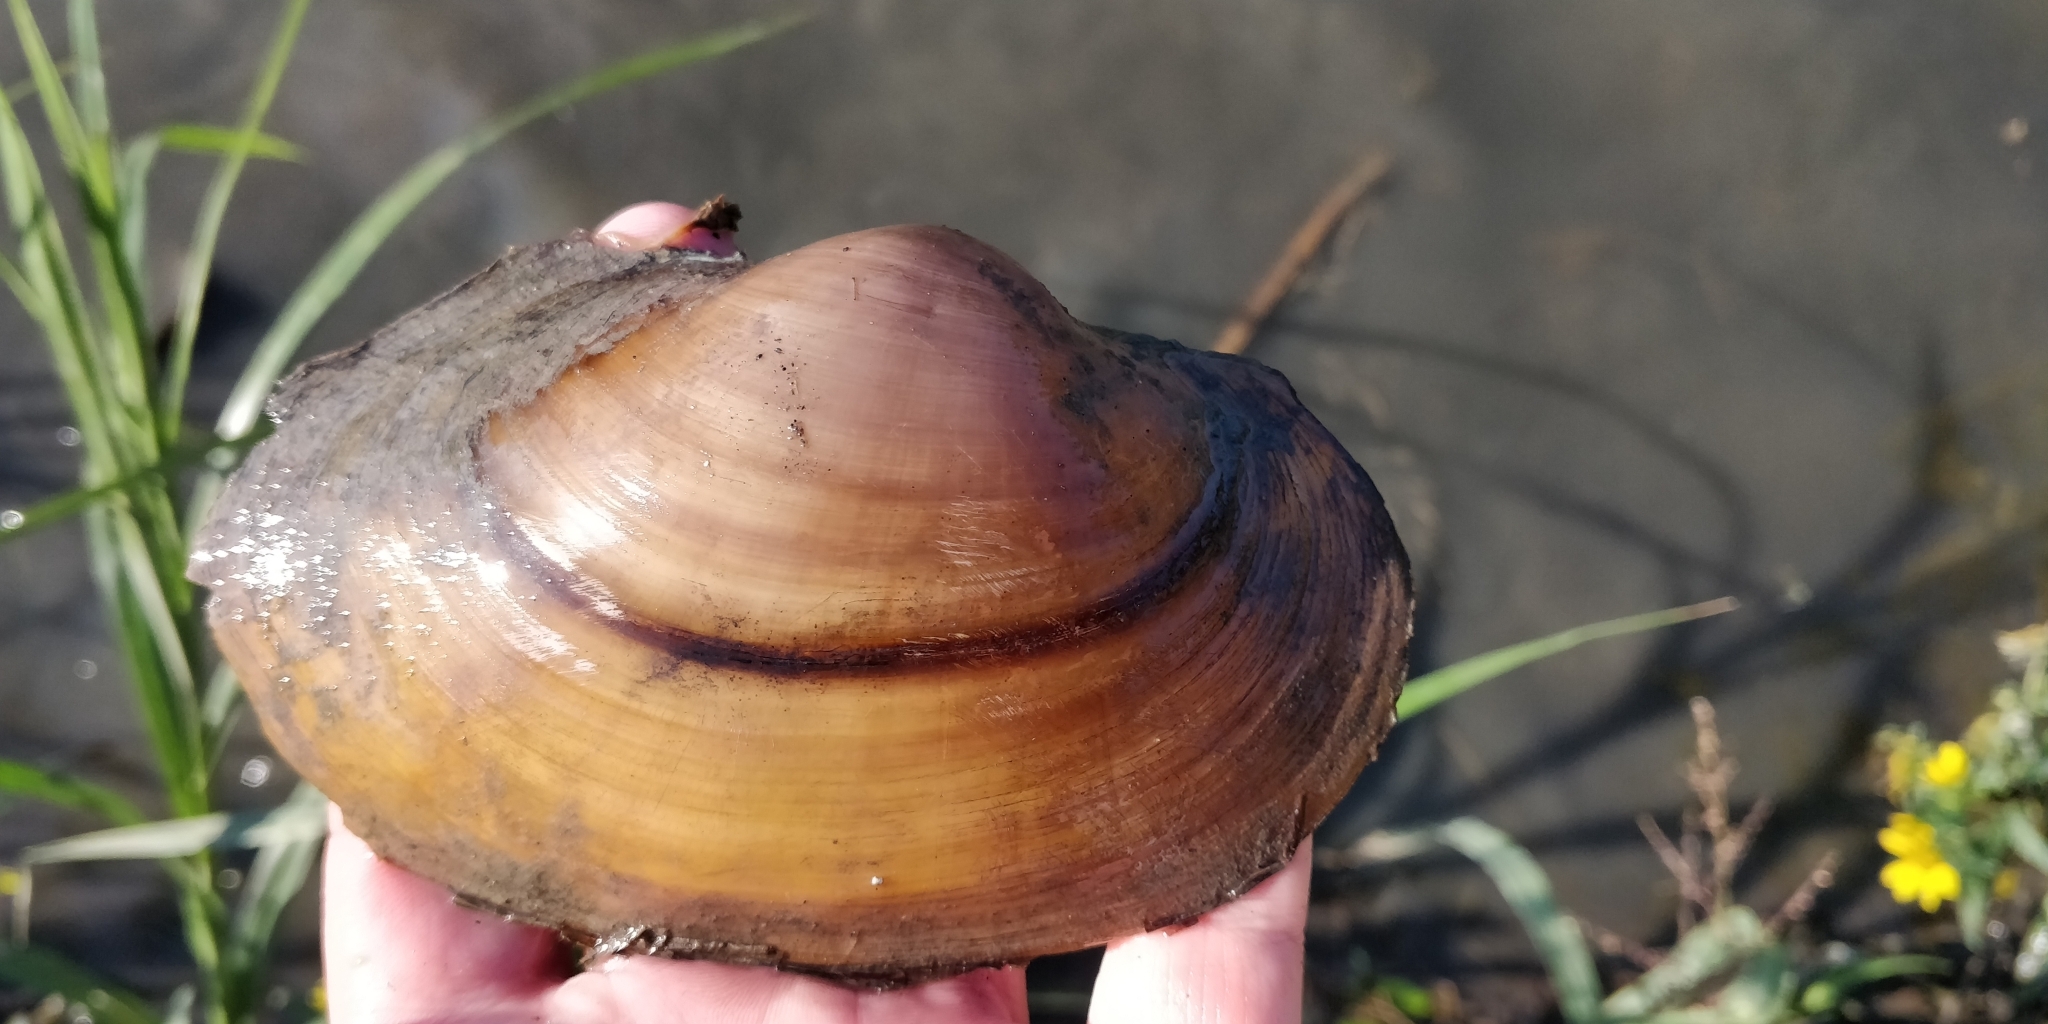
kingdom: Animalia
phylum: Mollusca
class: Bivalvia
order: Unionida
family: Unionidae
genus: Pyganodon
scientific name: Pyganodon grandis
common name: Giant floater
